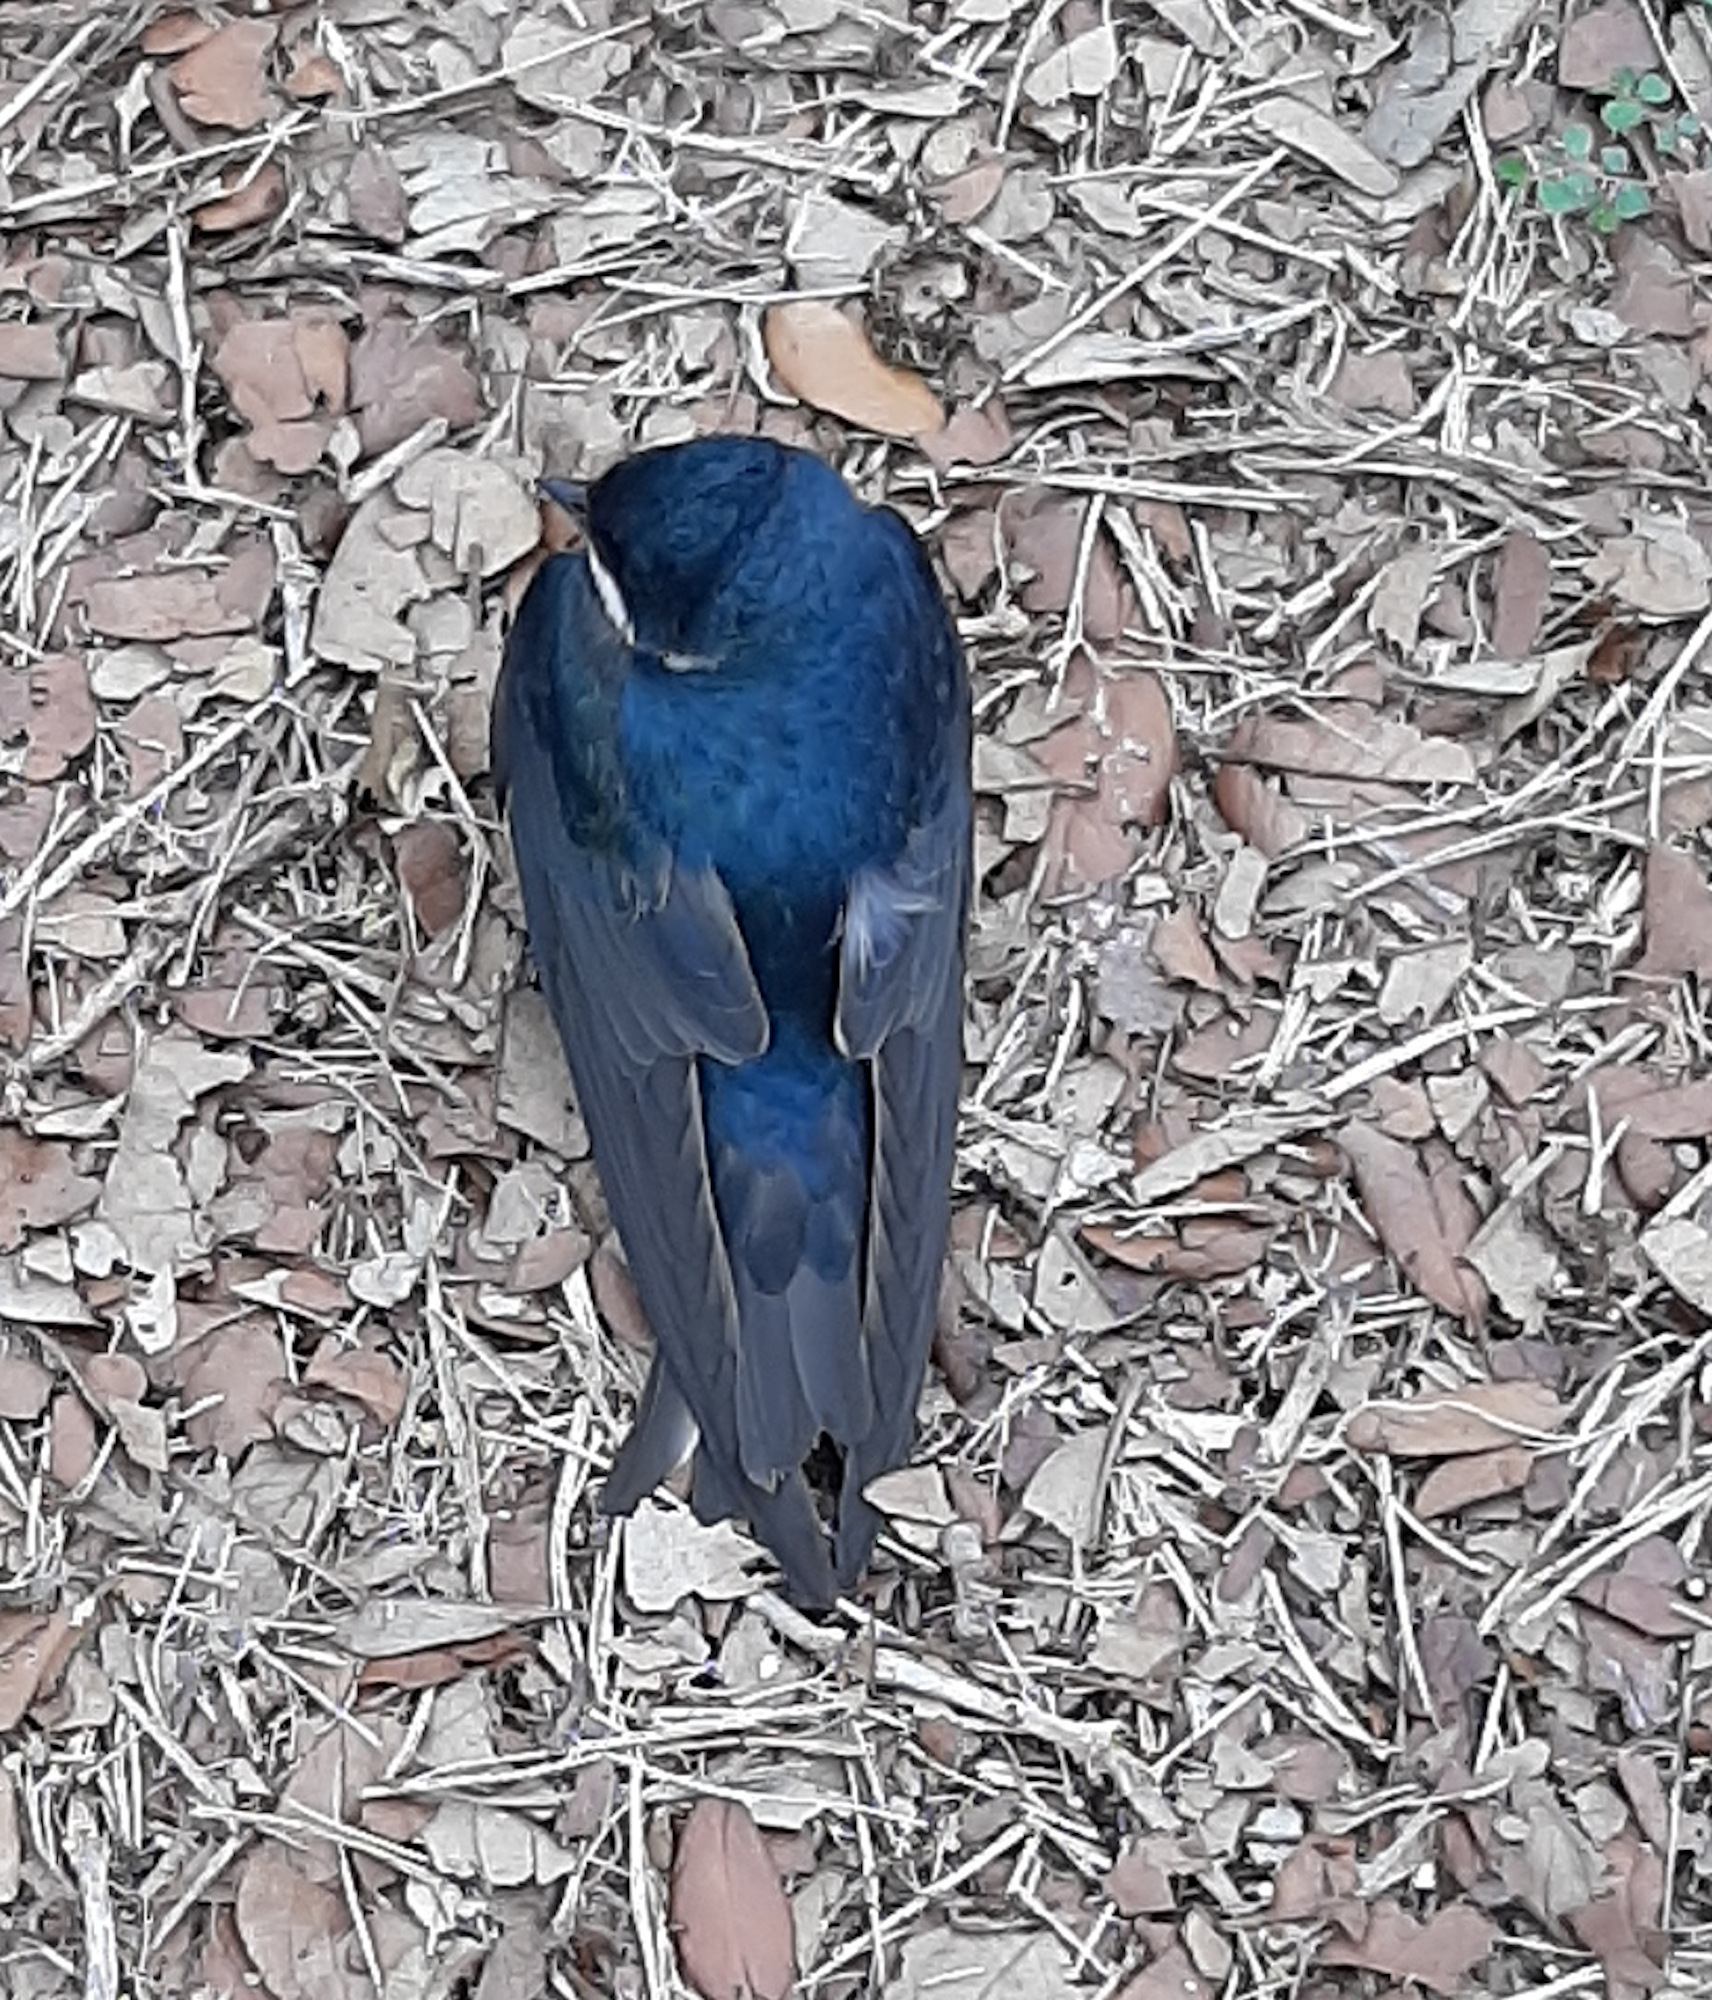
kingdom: Animalia
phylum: Chordata
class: Aves
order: Passeriformes
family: Hirundinidae
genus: Tachycineta
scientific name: Tachycineta bicolor
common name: Tree swallow
